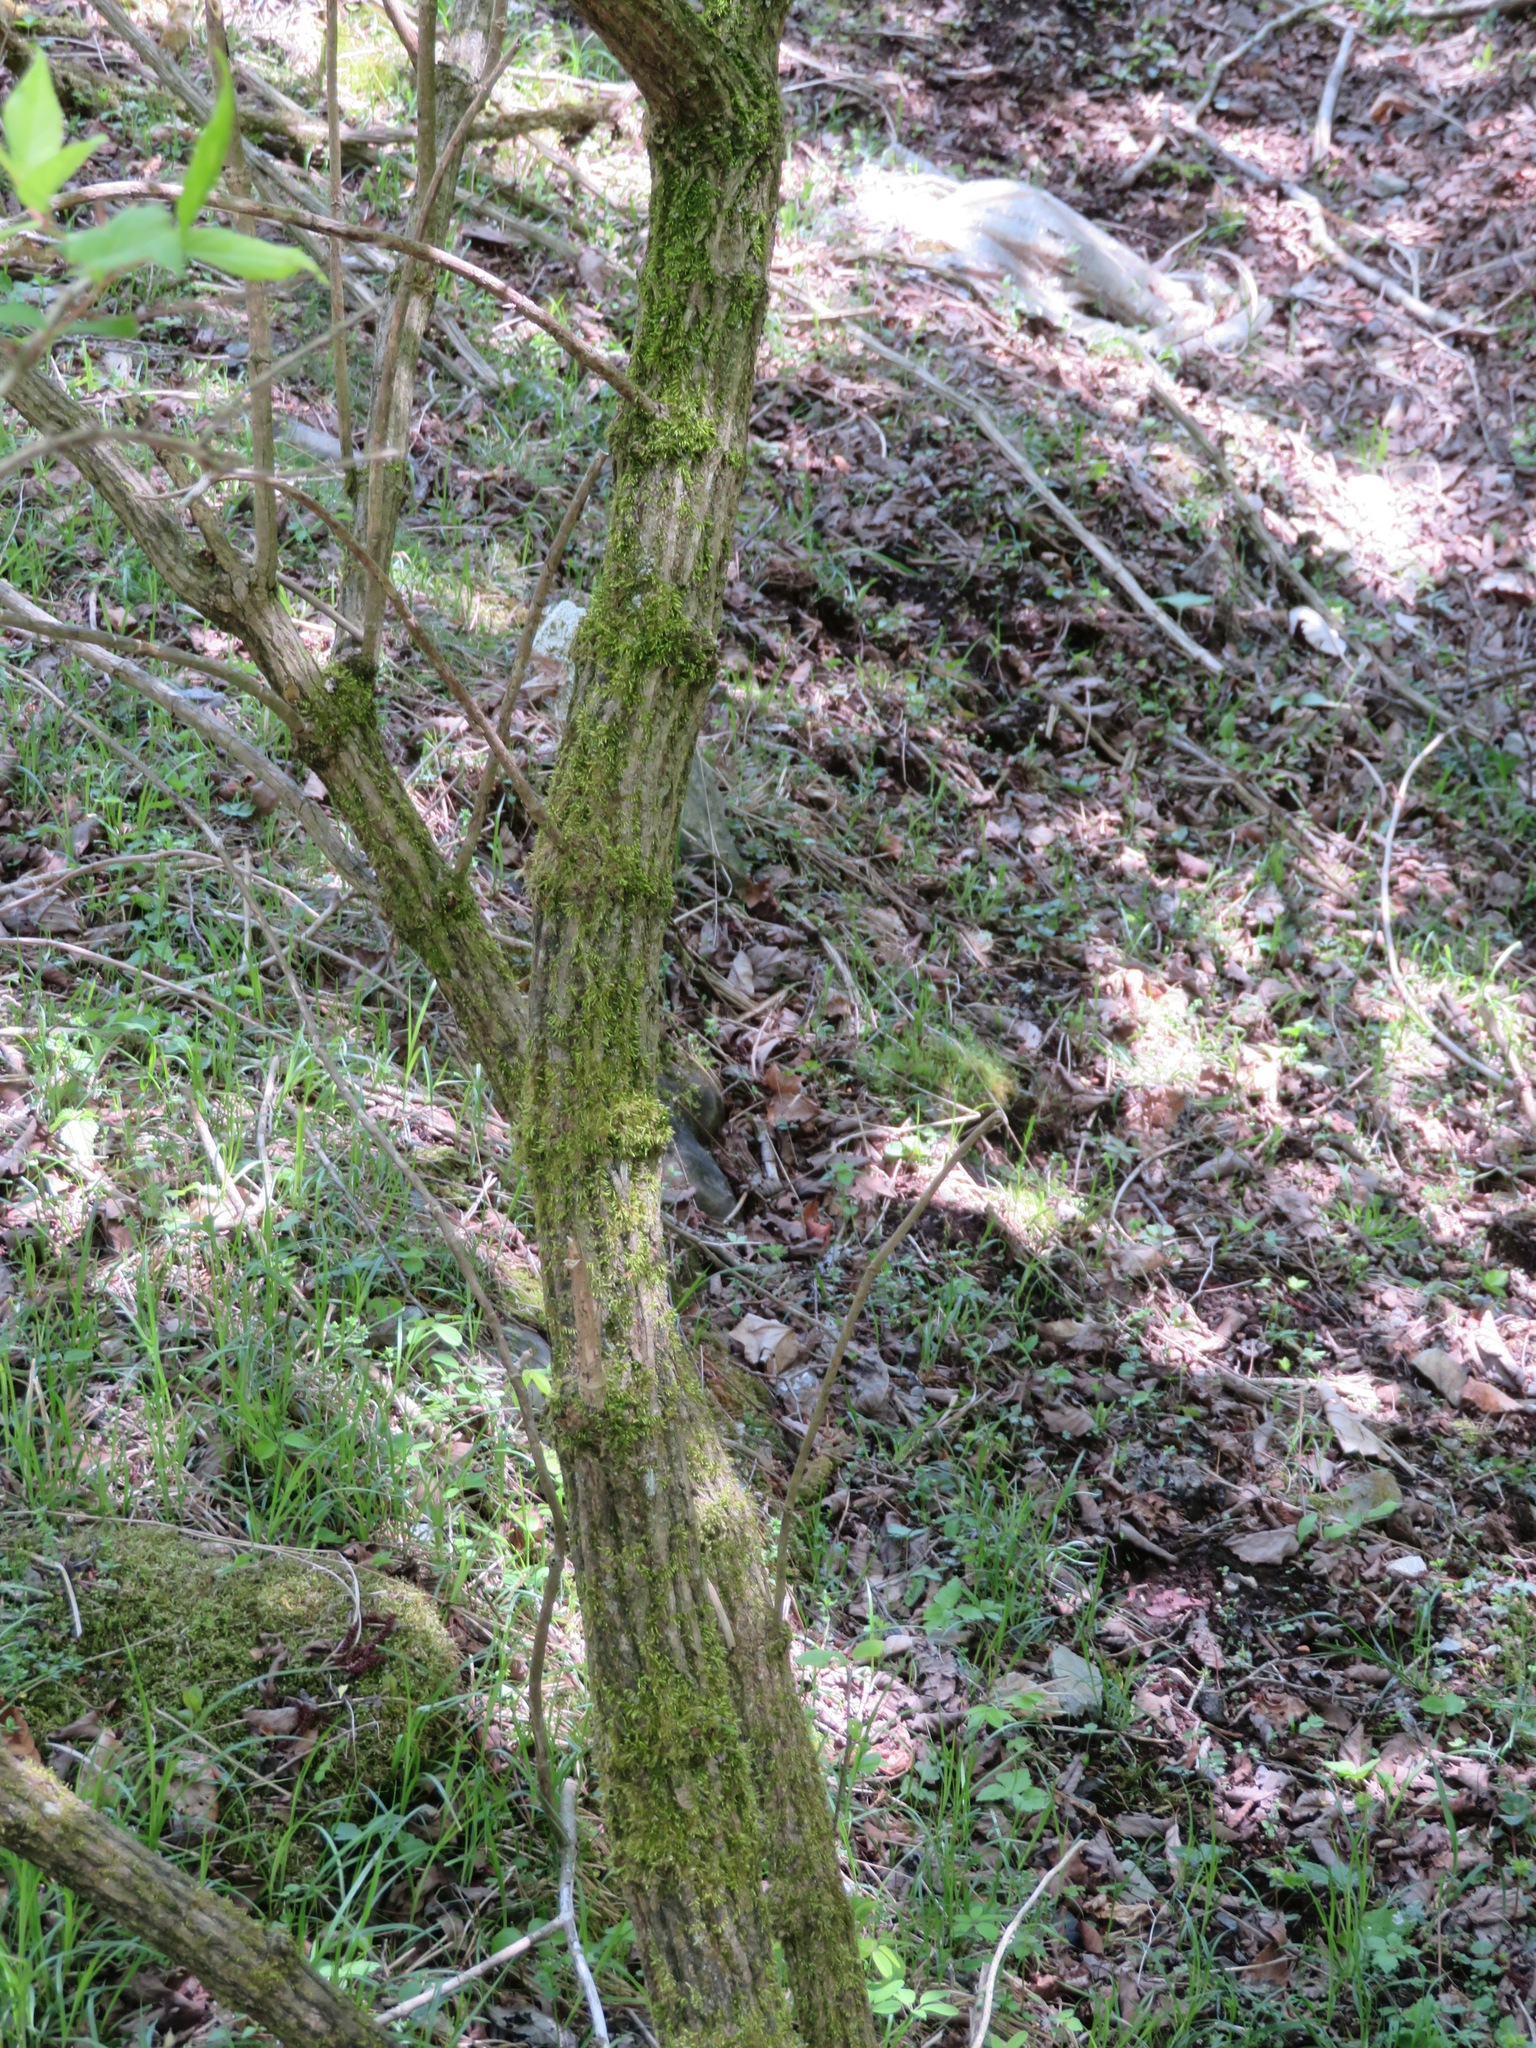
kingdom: Plantae
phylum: Tracheophyta
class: Magnoliopsida
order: Dipsacales
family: Viburnaceae
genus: Sambucus
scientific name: Sambucus sieboldiana
